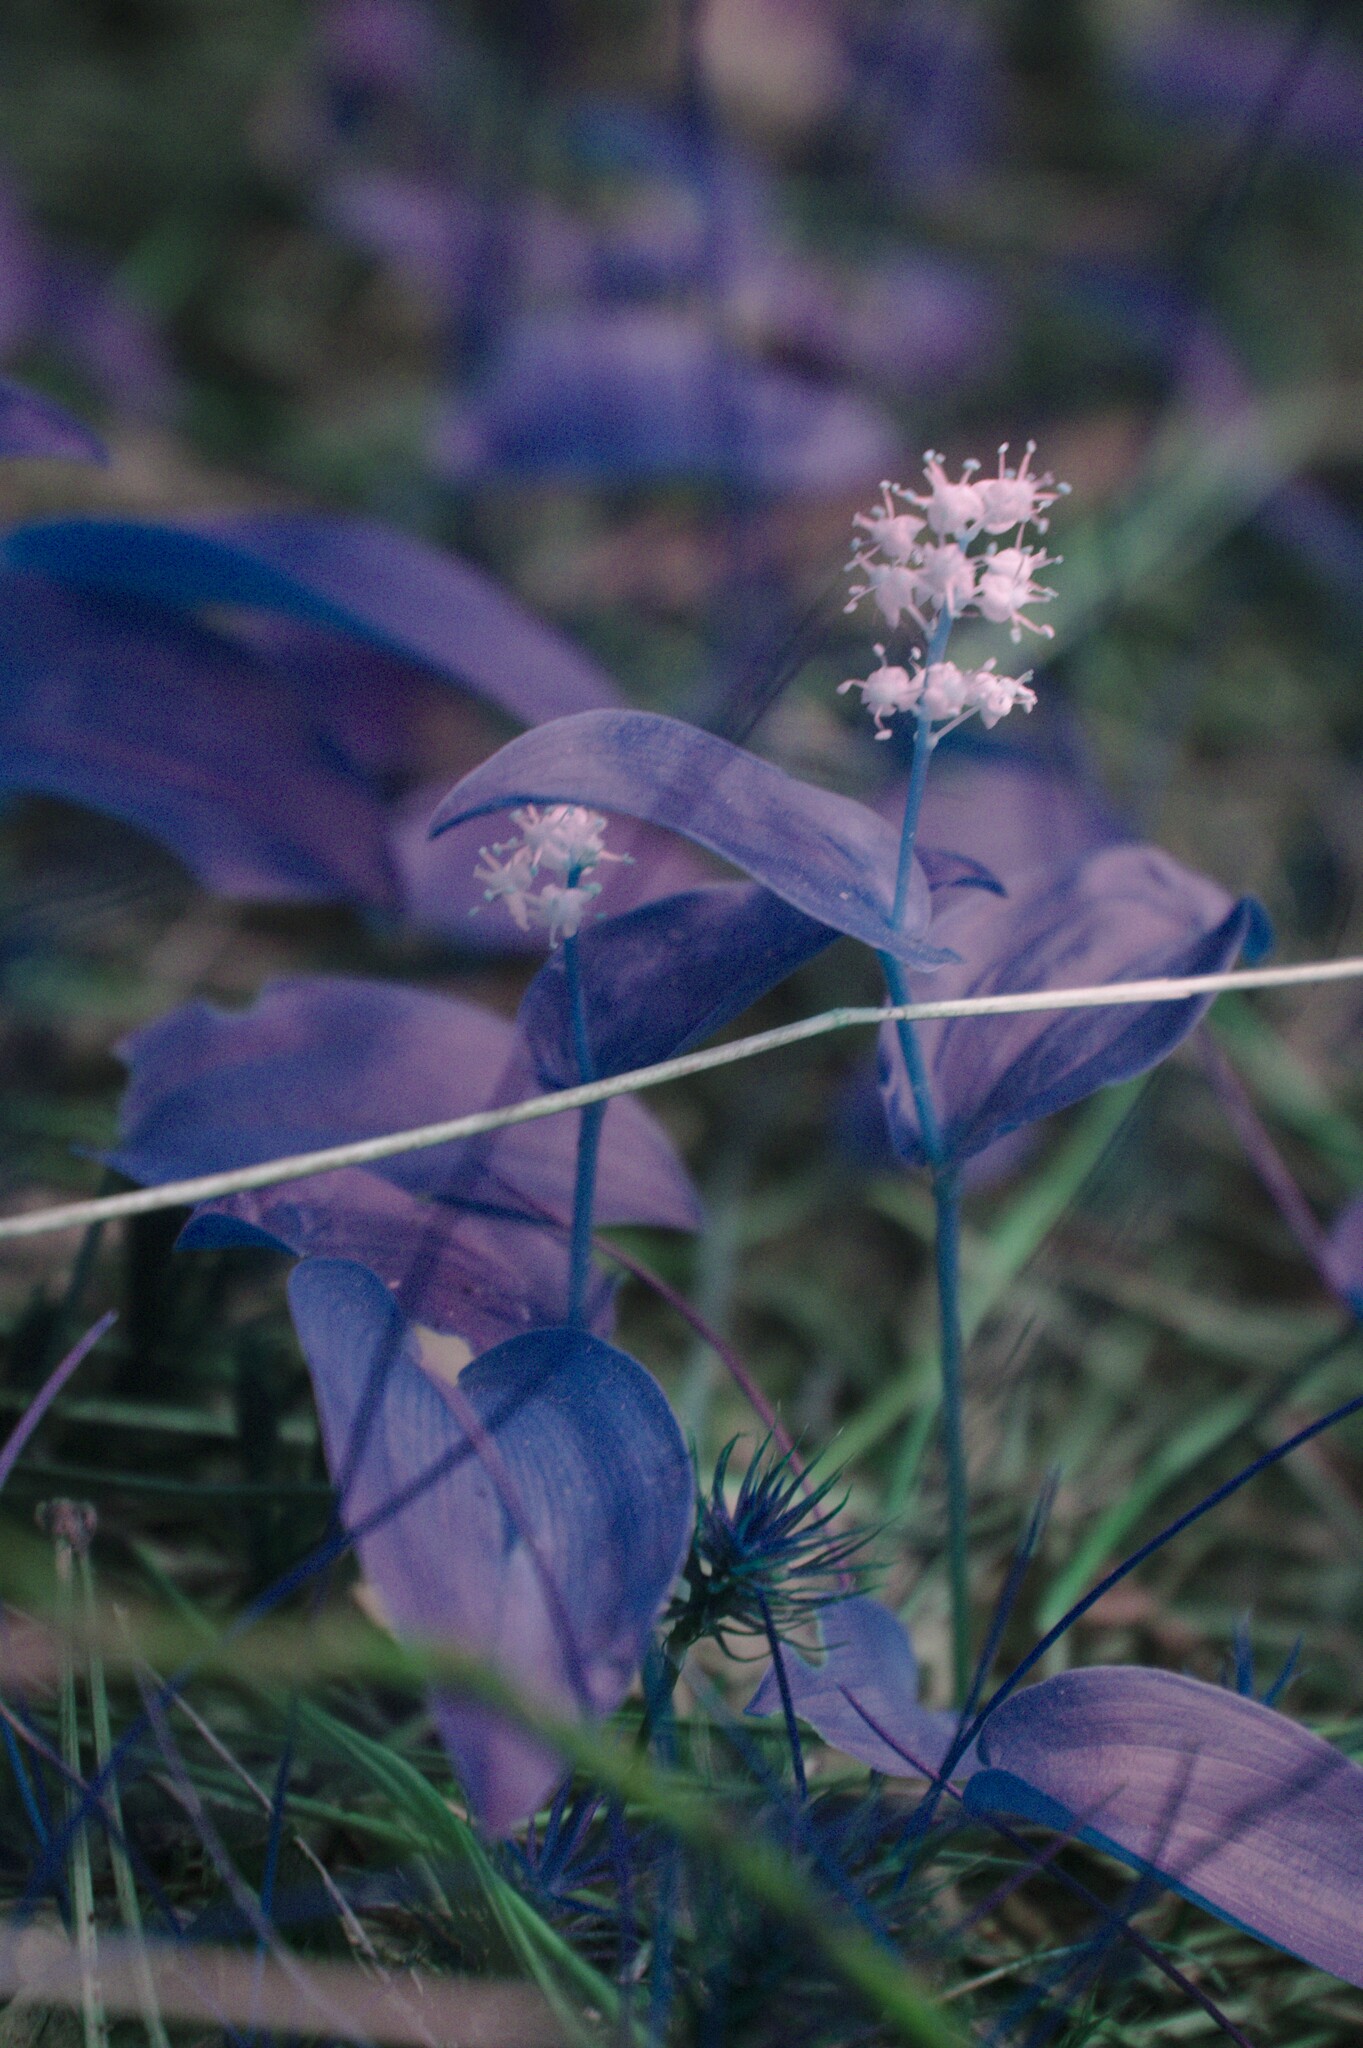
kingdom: Plantae
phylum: Tracheophyta
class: Liliopsida
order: Asparagales
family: Asparagaceae
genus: Maianthemum
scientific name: Maianthemum canadense
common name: False lily-of-the-valley
